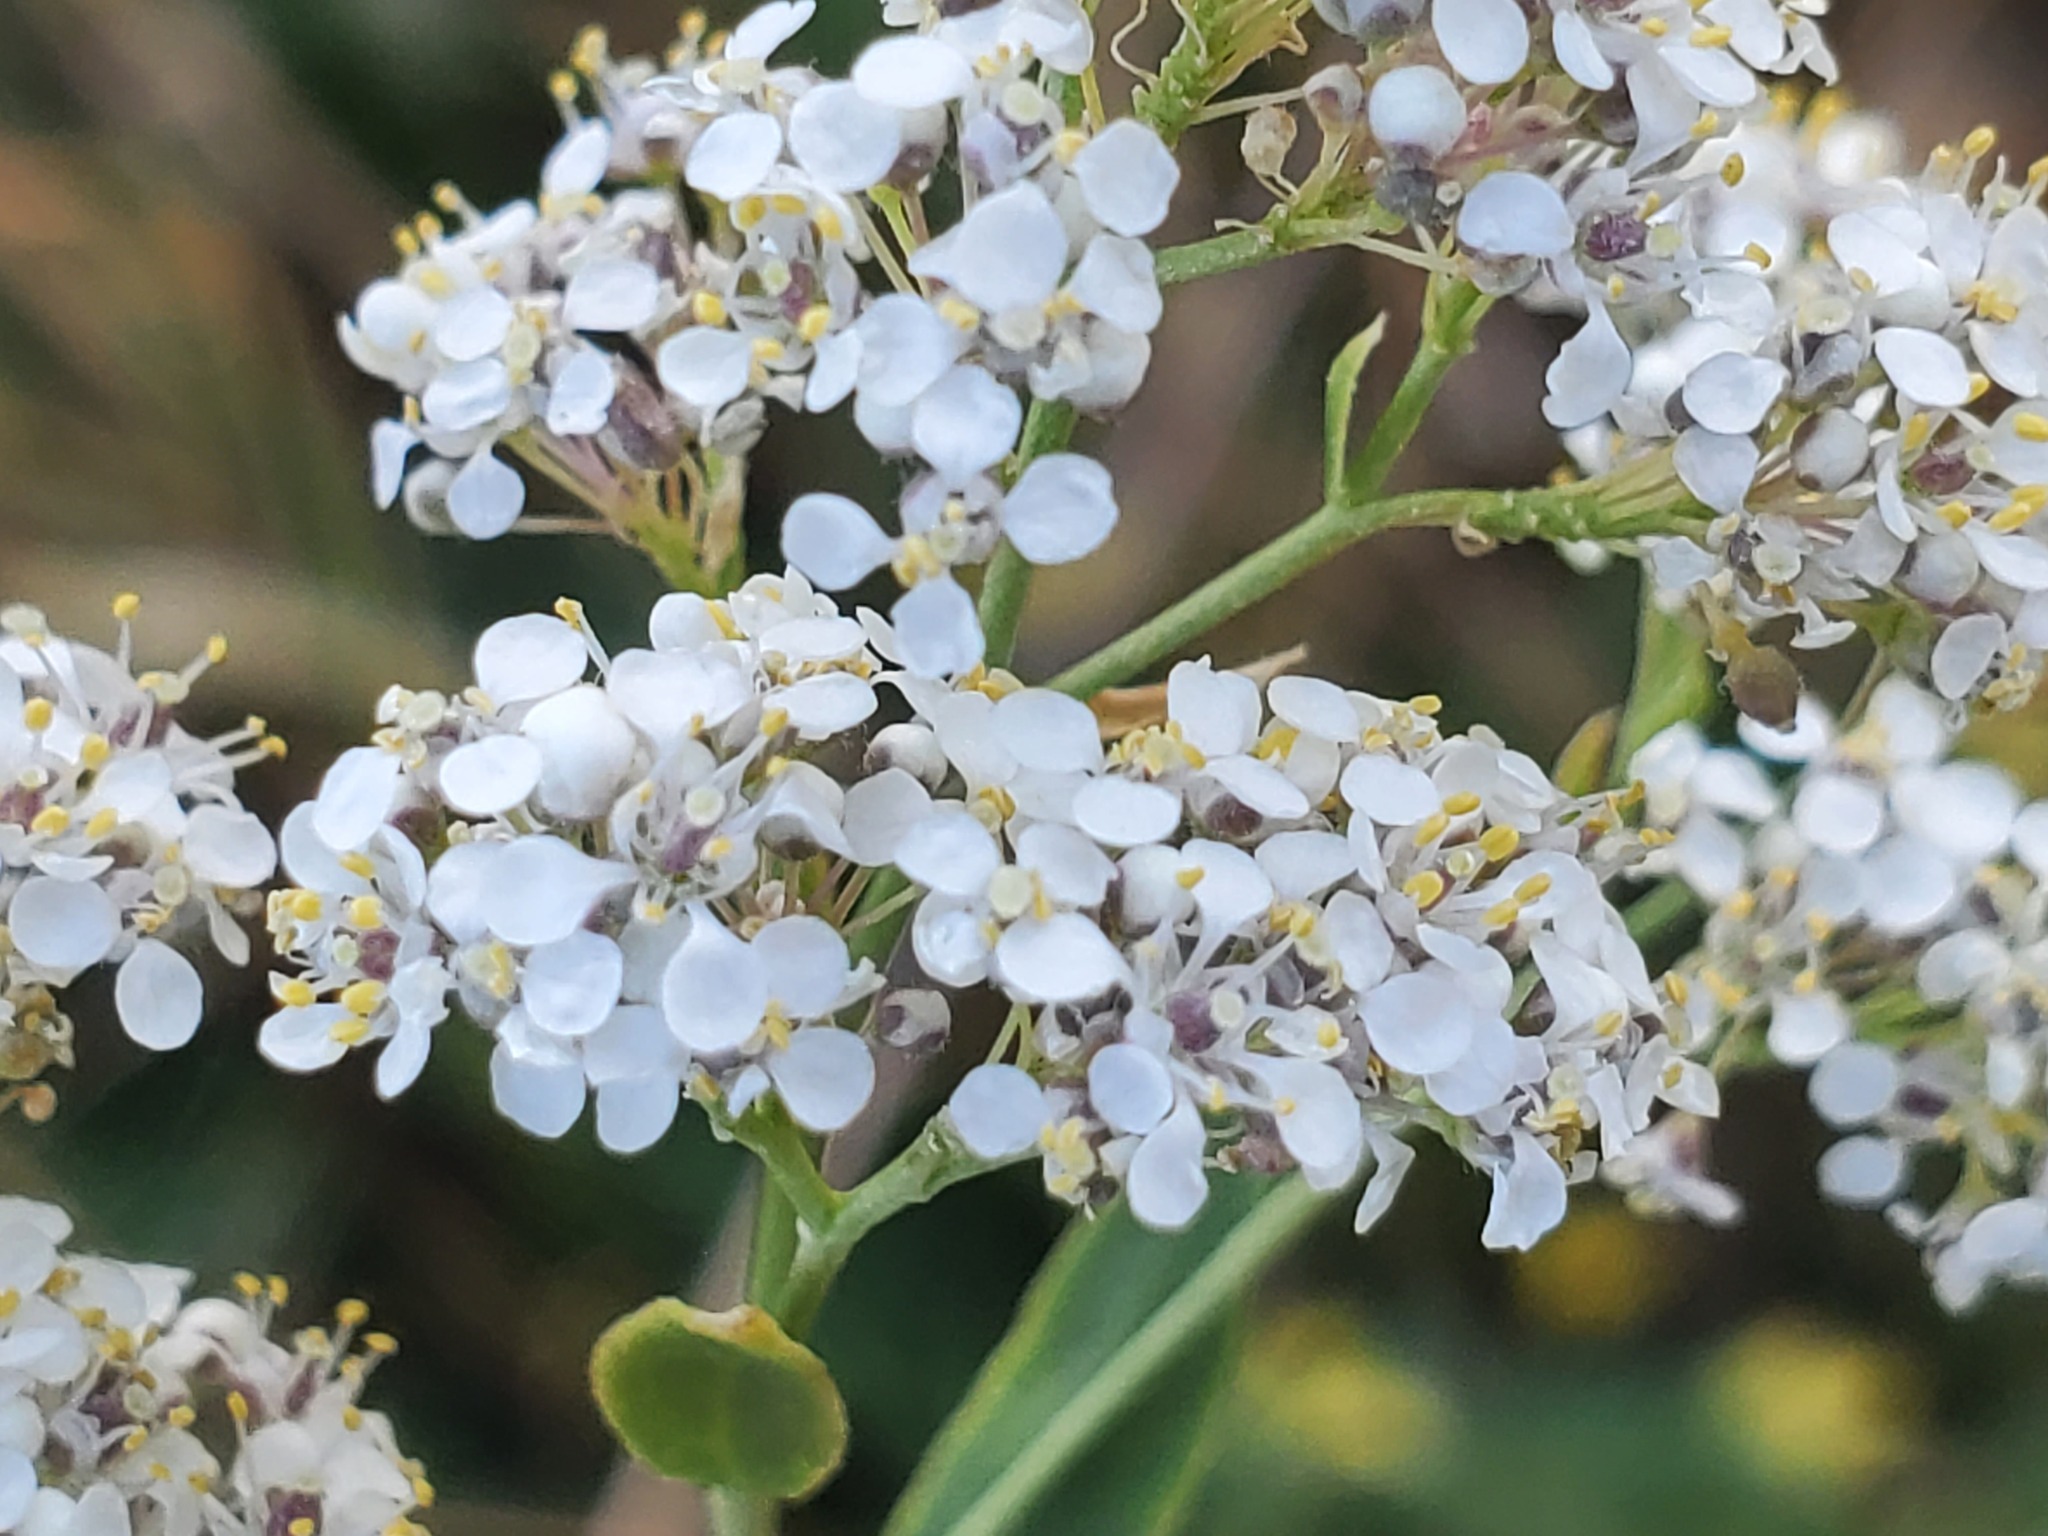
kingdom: Plantae
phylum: Tracheophyta
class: Magnoliopsida
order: Brassicales
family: Brassicaceae
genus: Lepidium
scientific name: Lepidium latifolium
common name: Dittander
